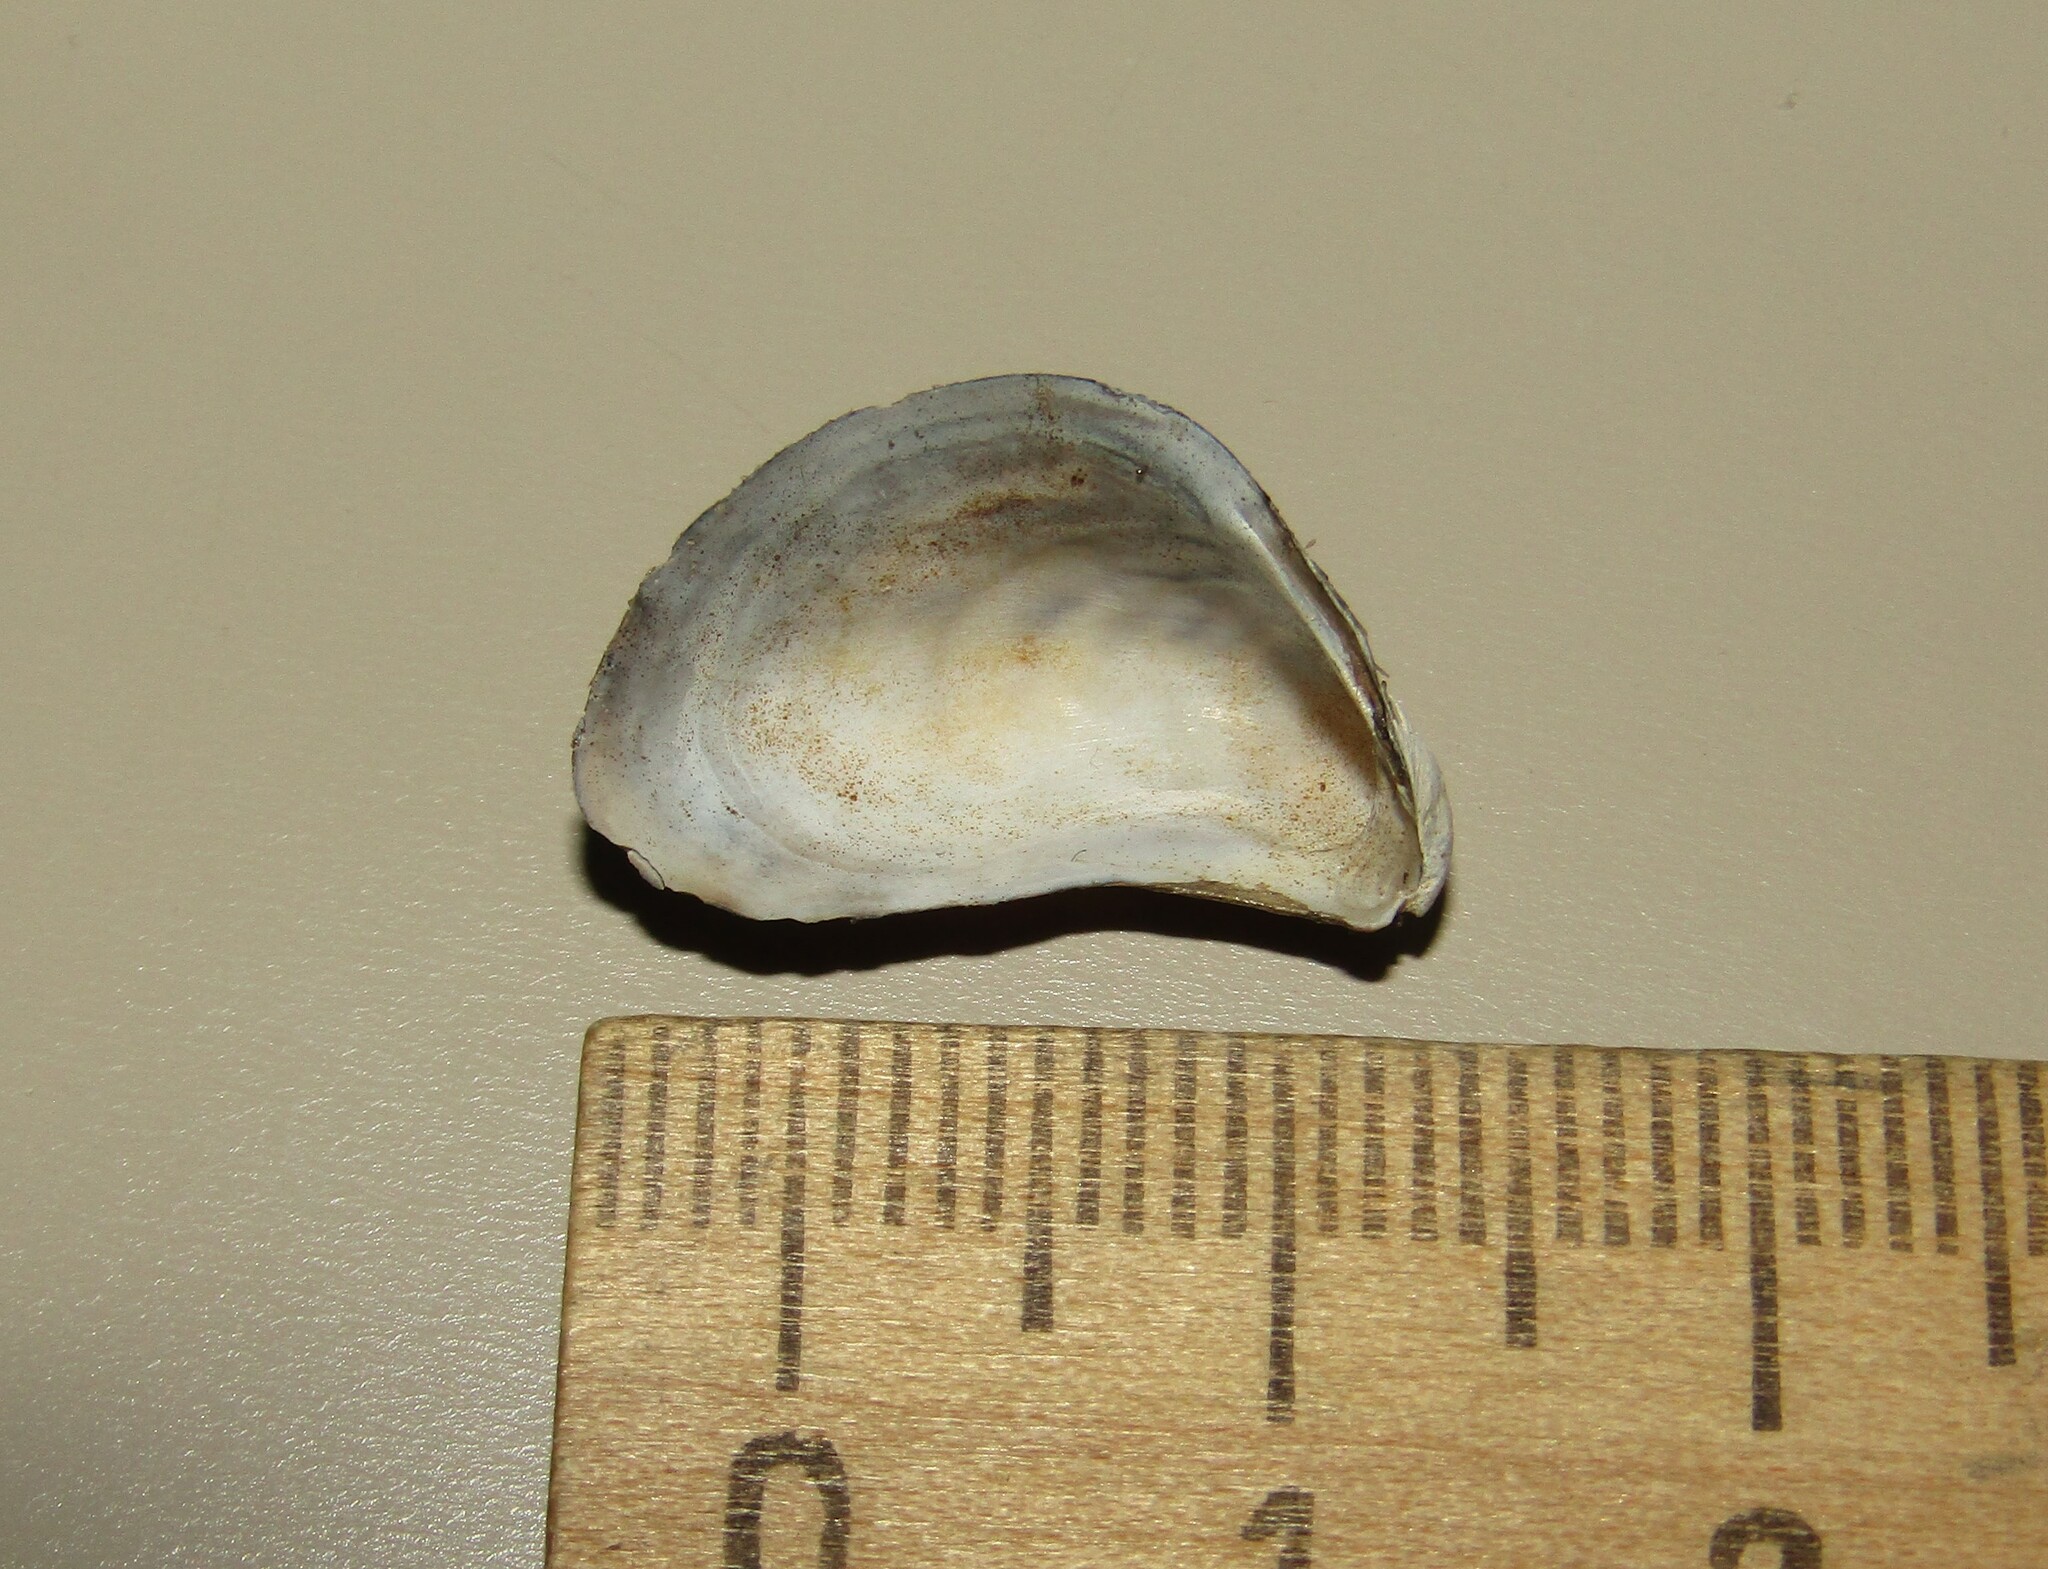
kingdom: Animalia
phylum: Mollusca
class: Bivalvia
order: Myida
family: Dreissenidae
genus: Dreissena
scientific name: Dreissena bugensis
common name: Quagga mussel
